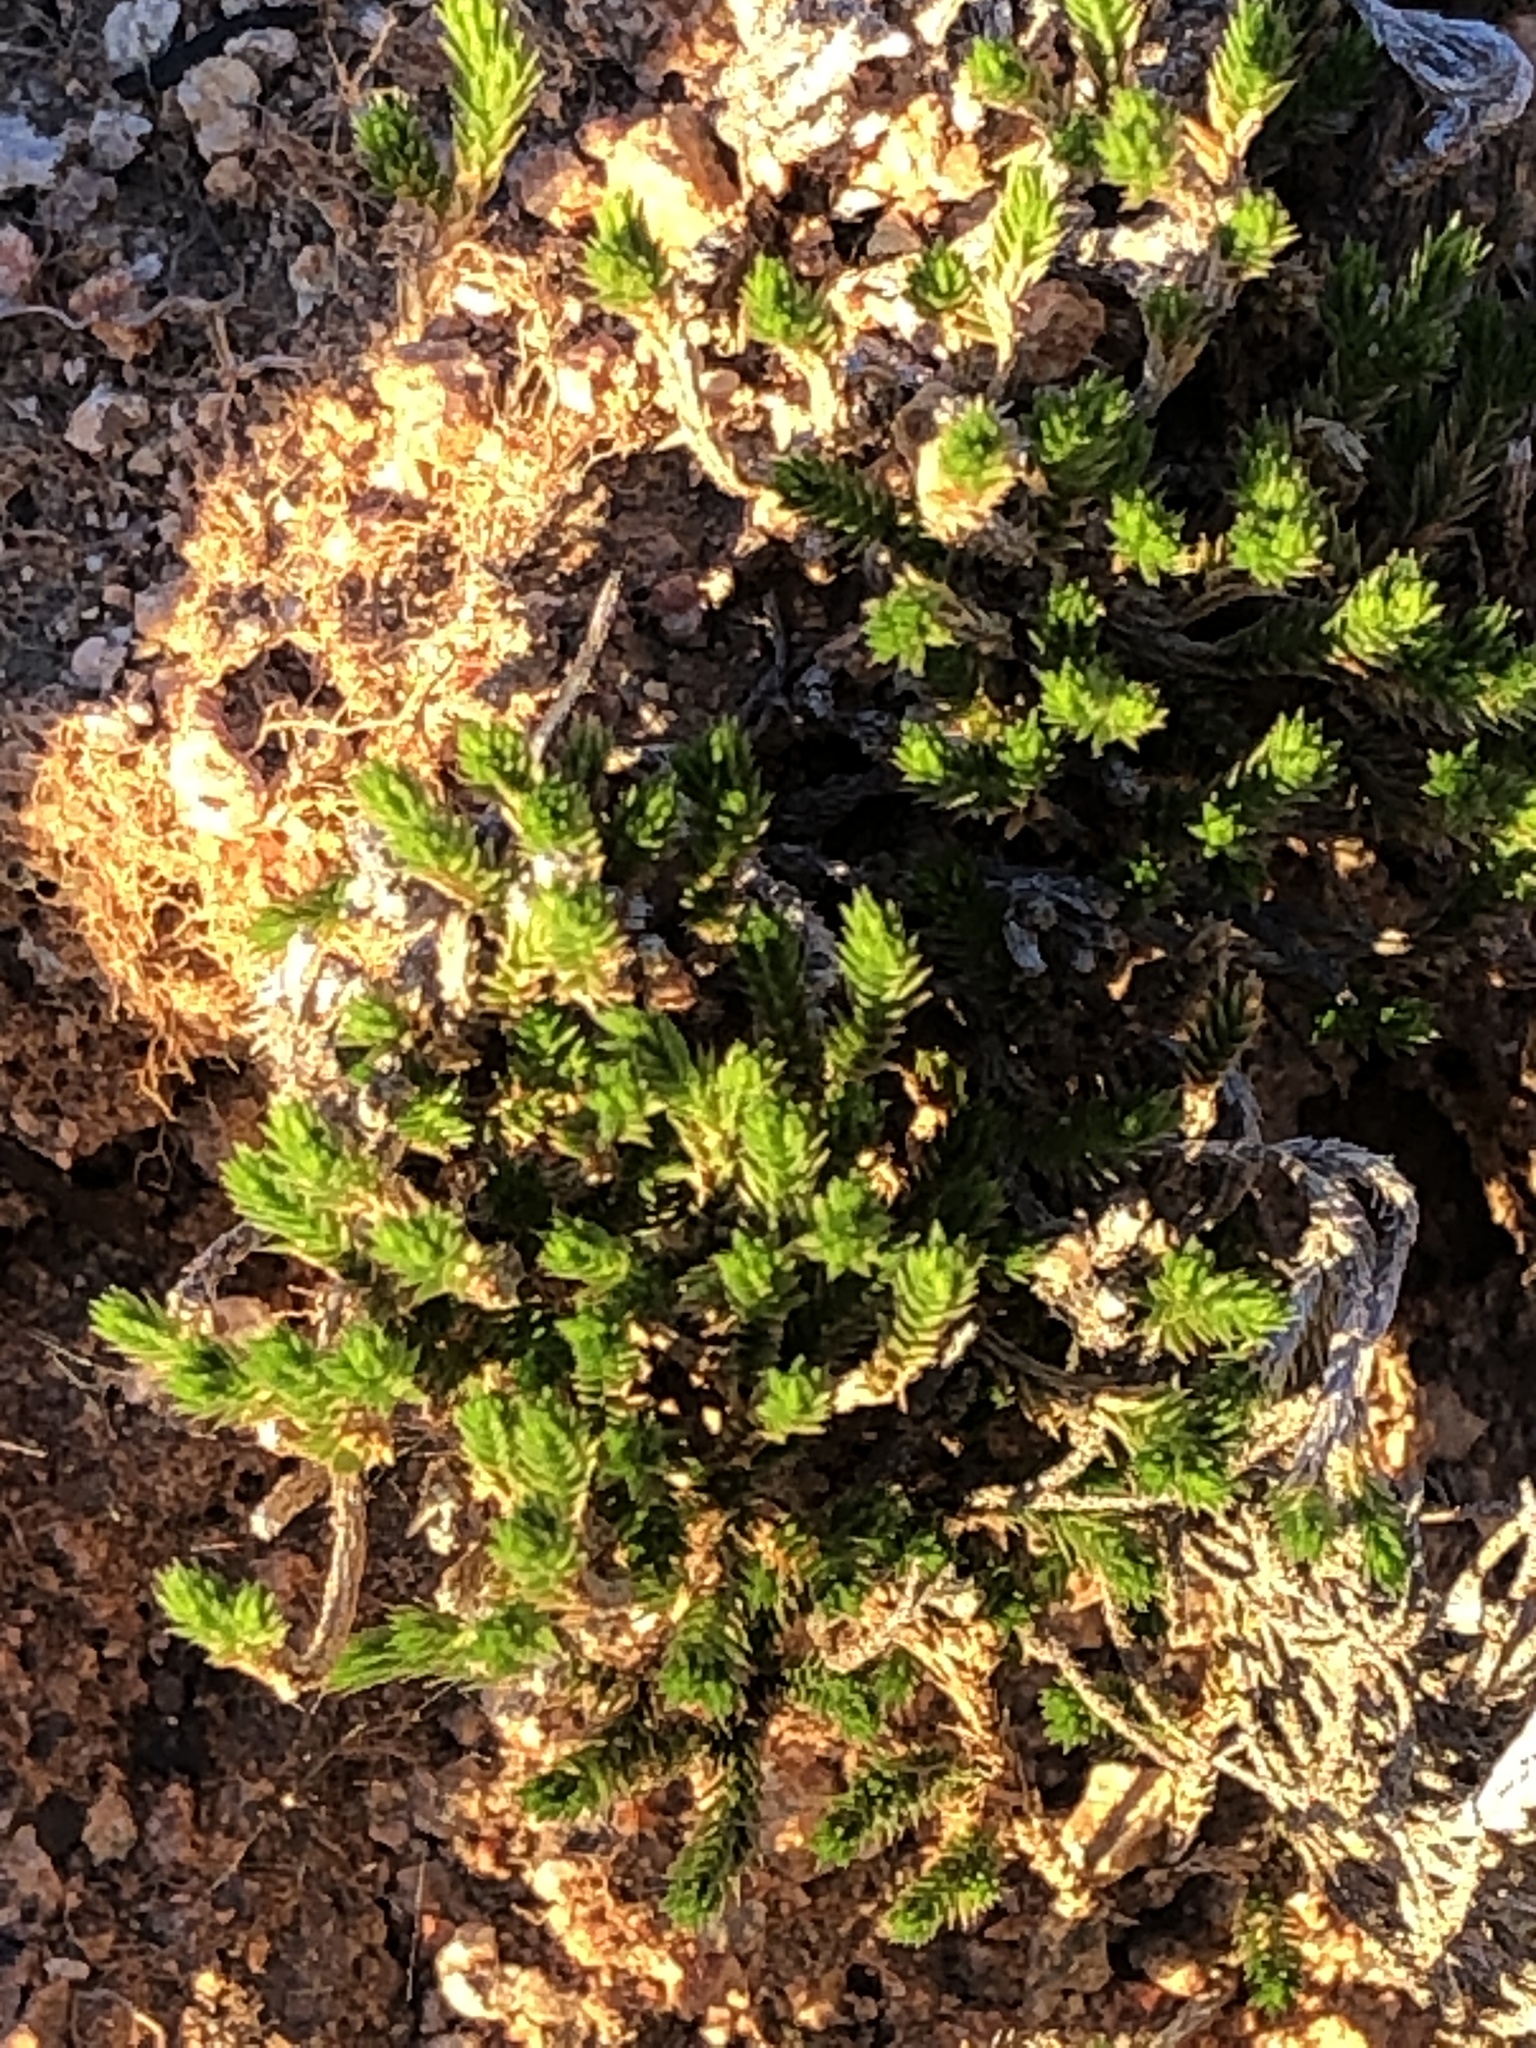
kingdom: Plantae
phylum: Tracheophyta
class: Lycopodiopsida
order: Selaginellales
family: Selaginellaceae
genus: Selaginella
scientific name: Selaginella bigelovii
